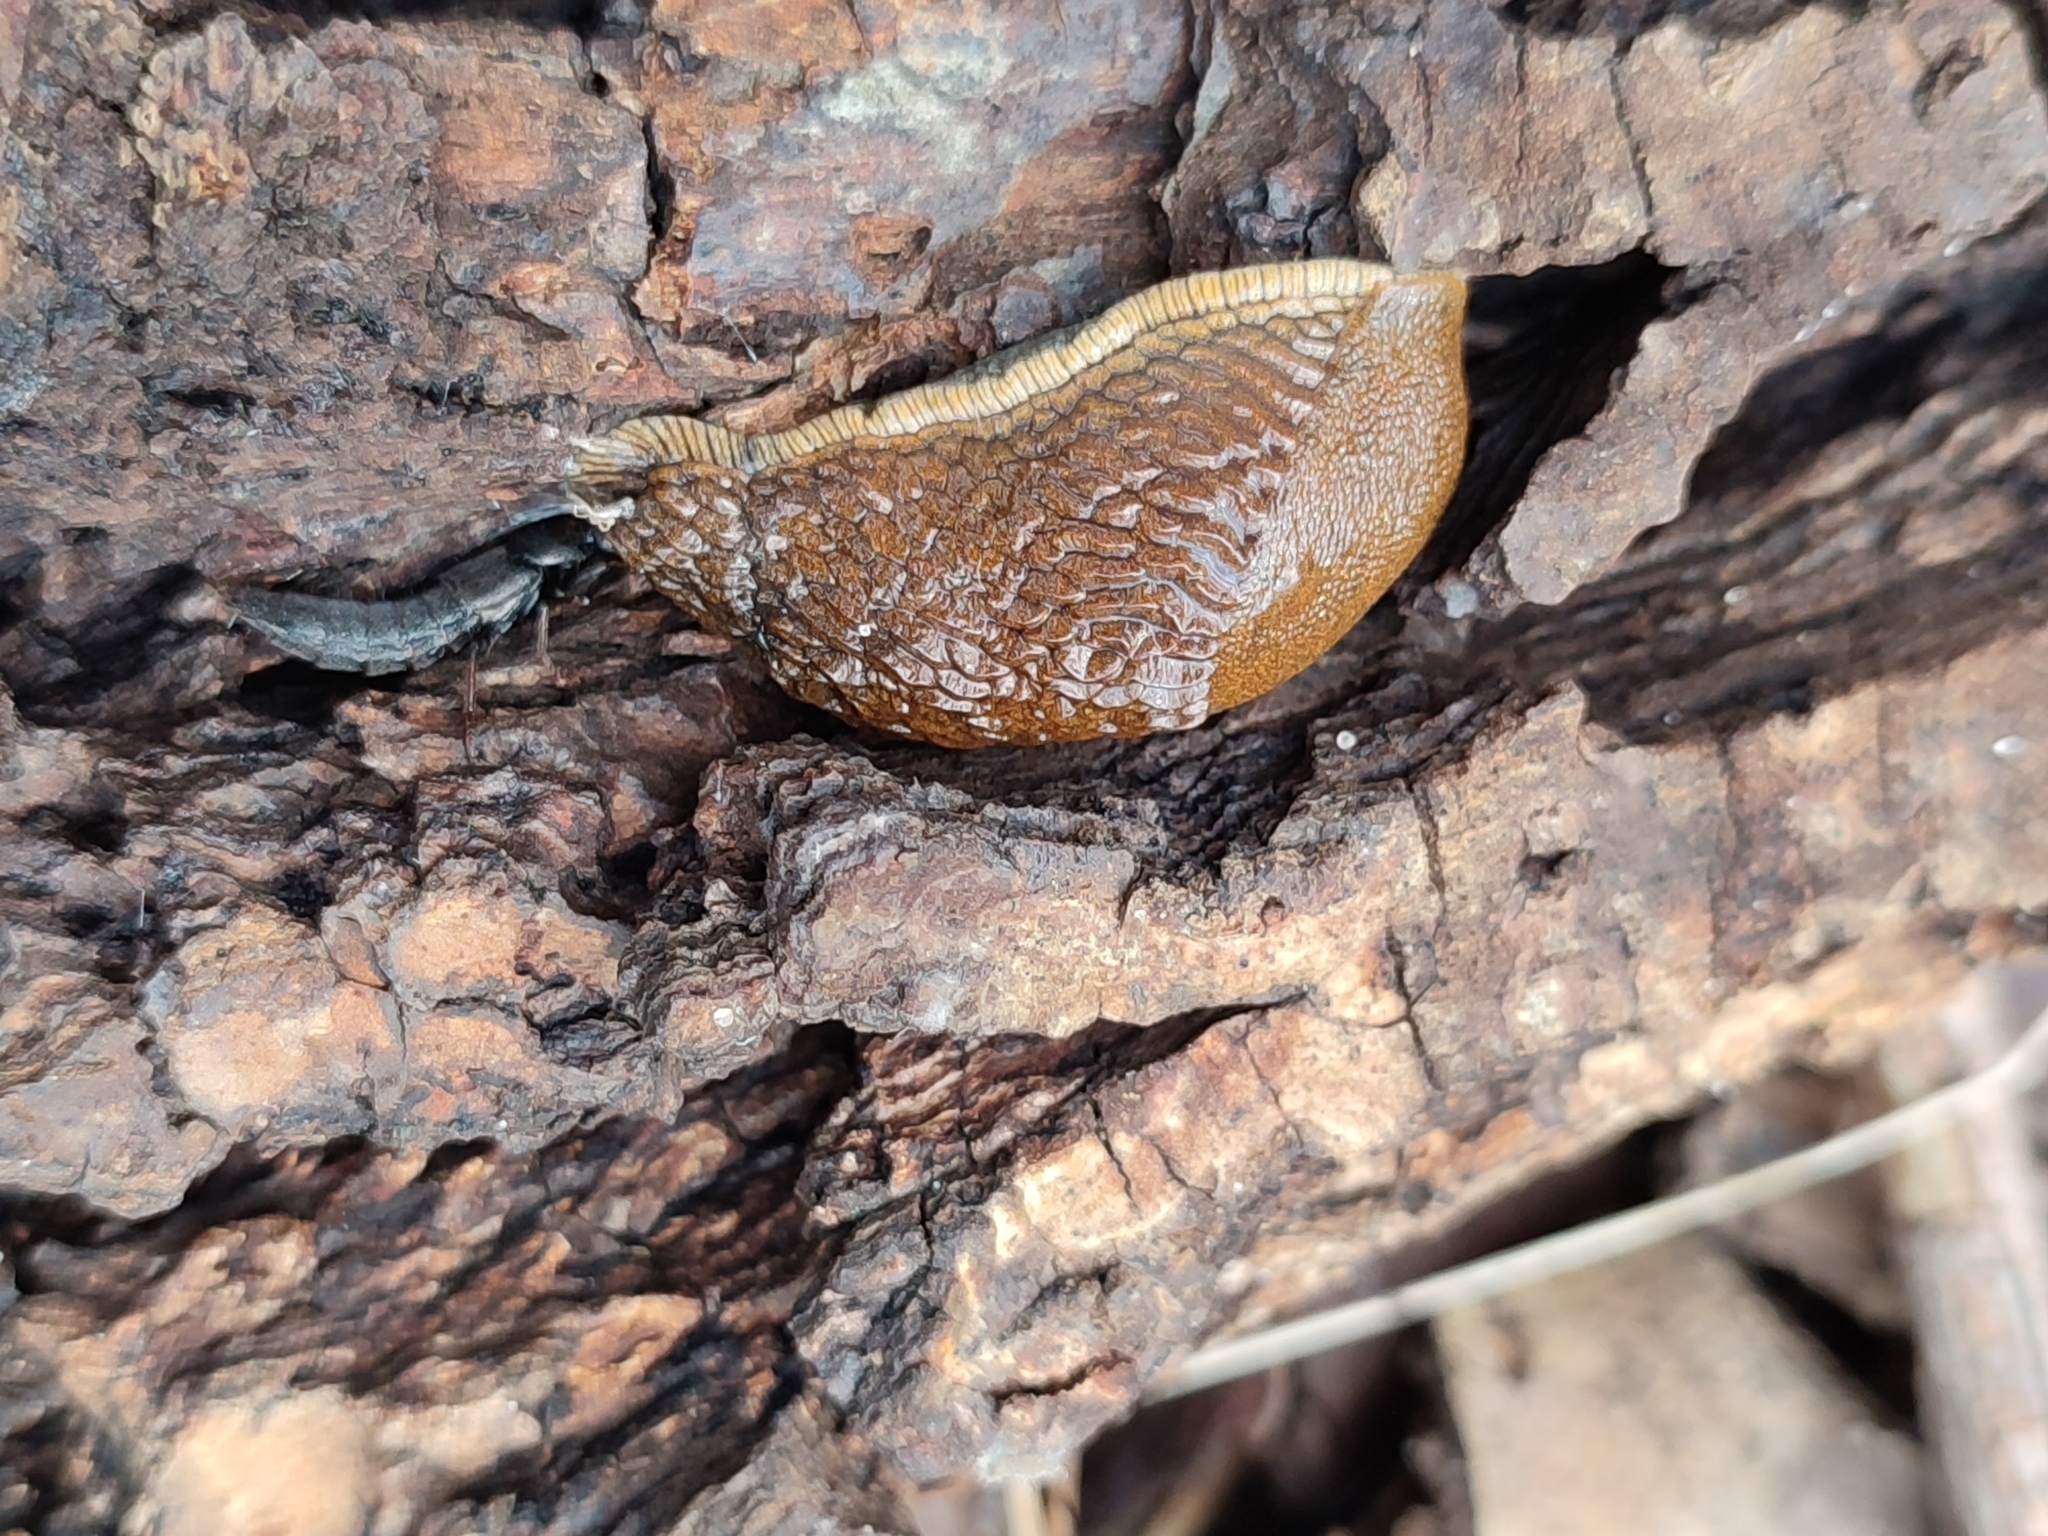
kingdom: Animalia
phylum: Mollusca
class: Gastropoda
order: Stylommatophora
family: Arionidae
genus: Arion
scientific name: Arion vulgaris
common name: Lusitanian slug
